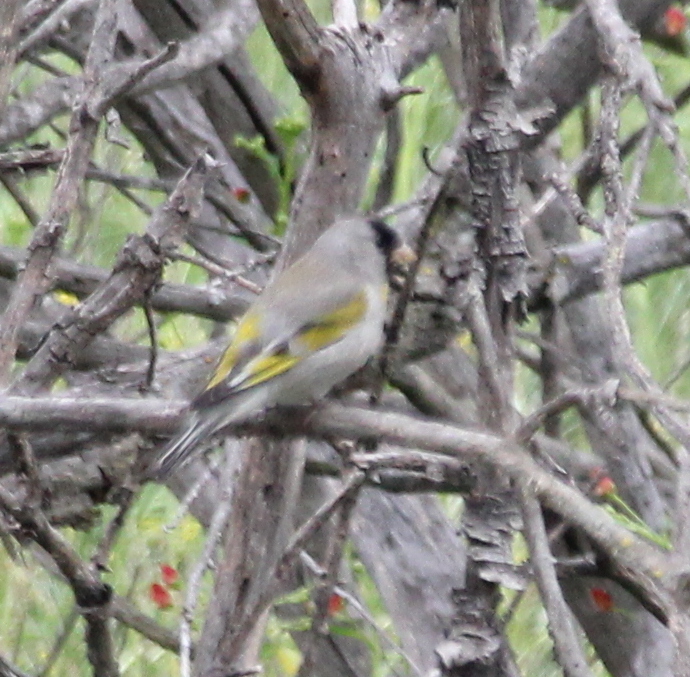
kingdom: Animalia
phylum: Chordata
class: Aves
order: Passeriformes
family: Fringillidae
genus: Spinus
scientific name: Spinus lawrencei
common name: Lawrence's goldfinch
